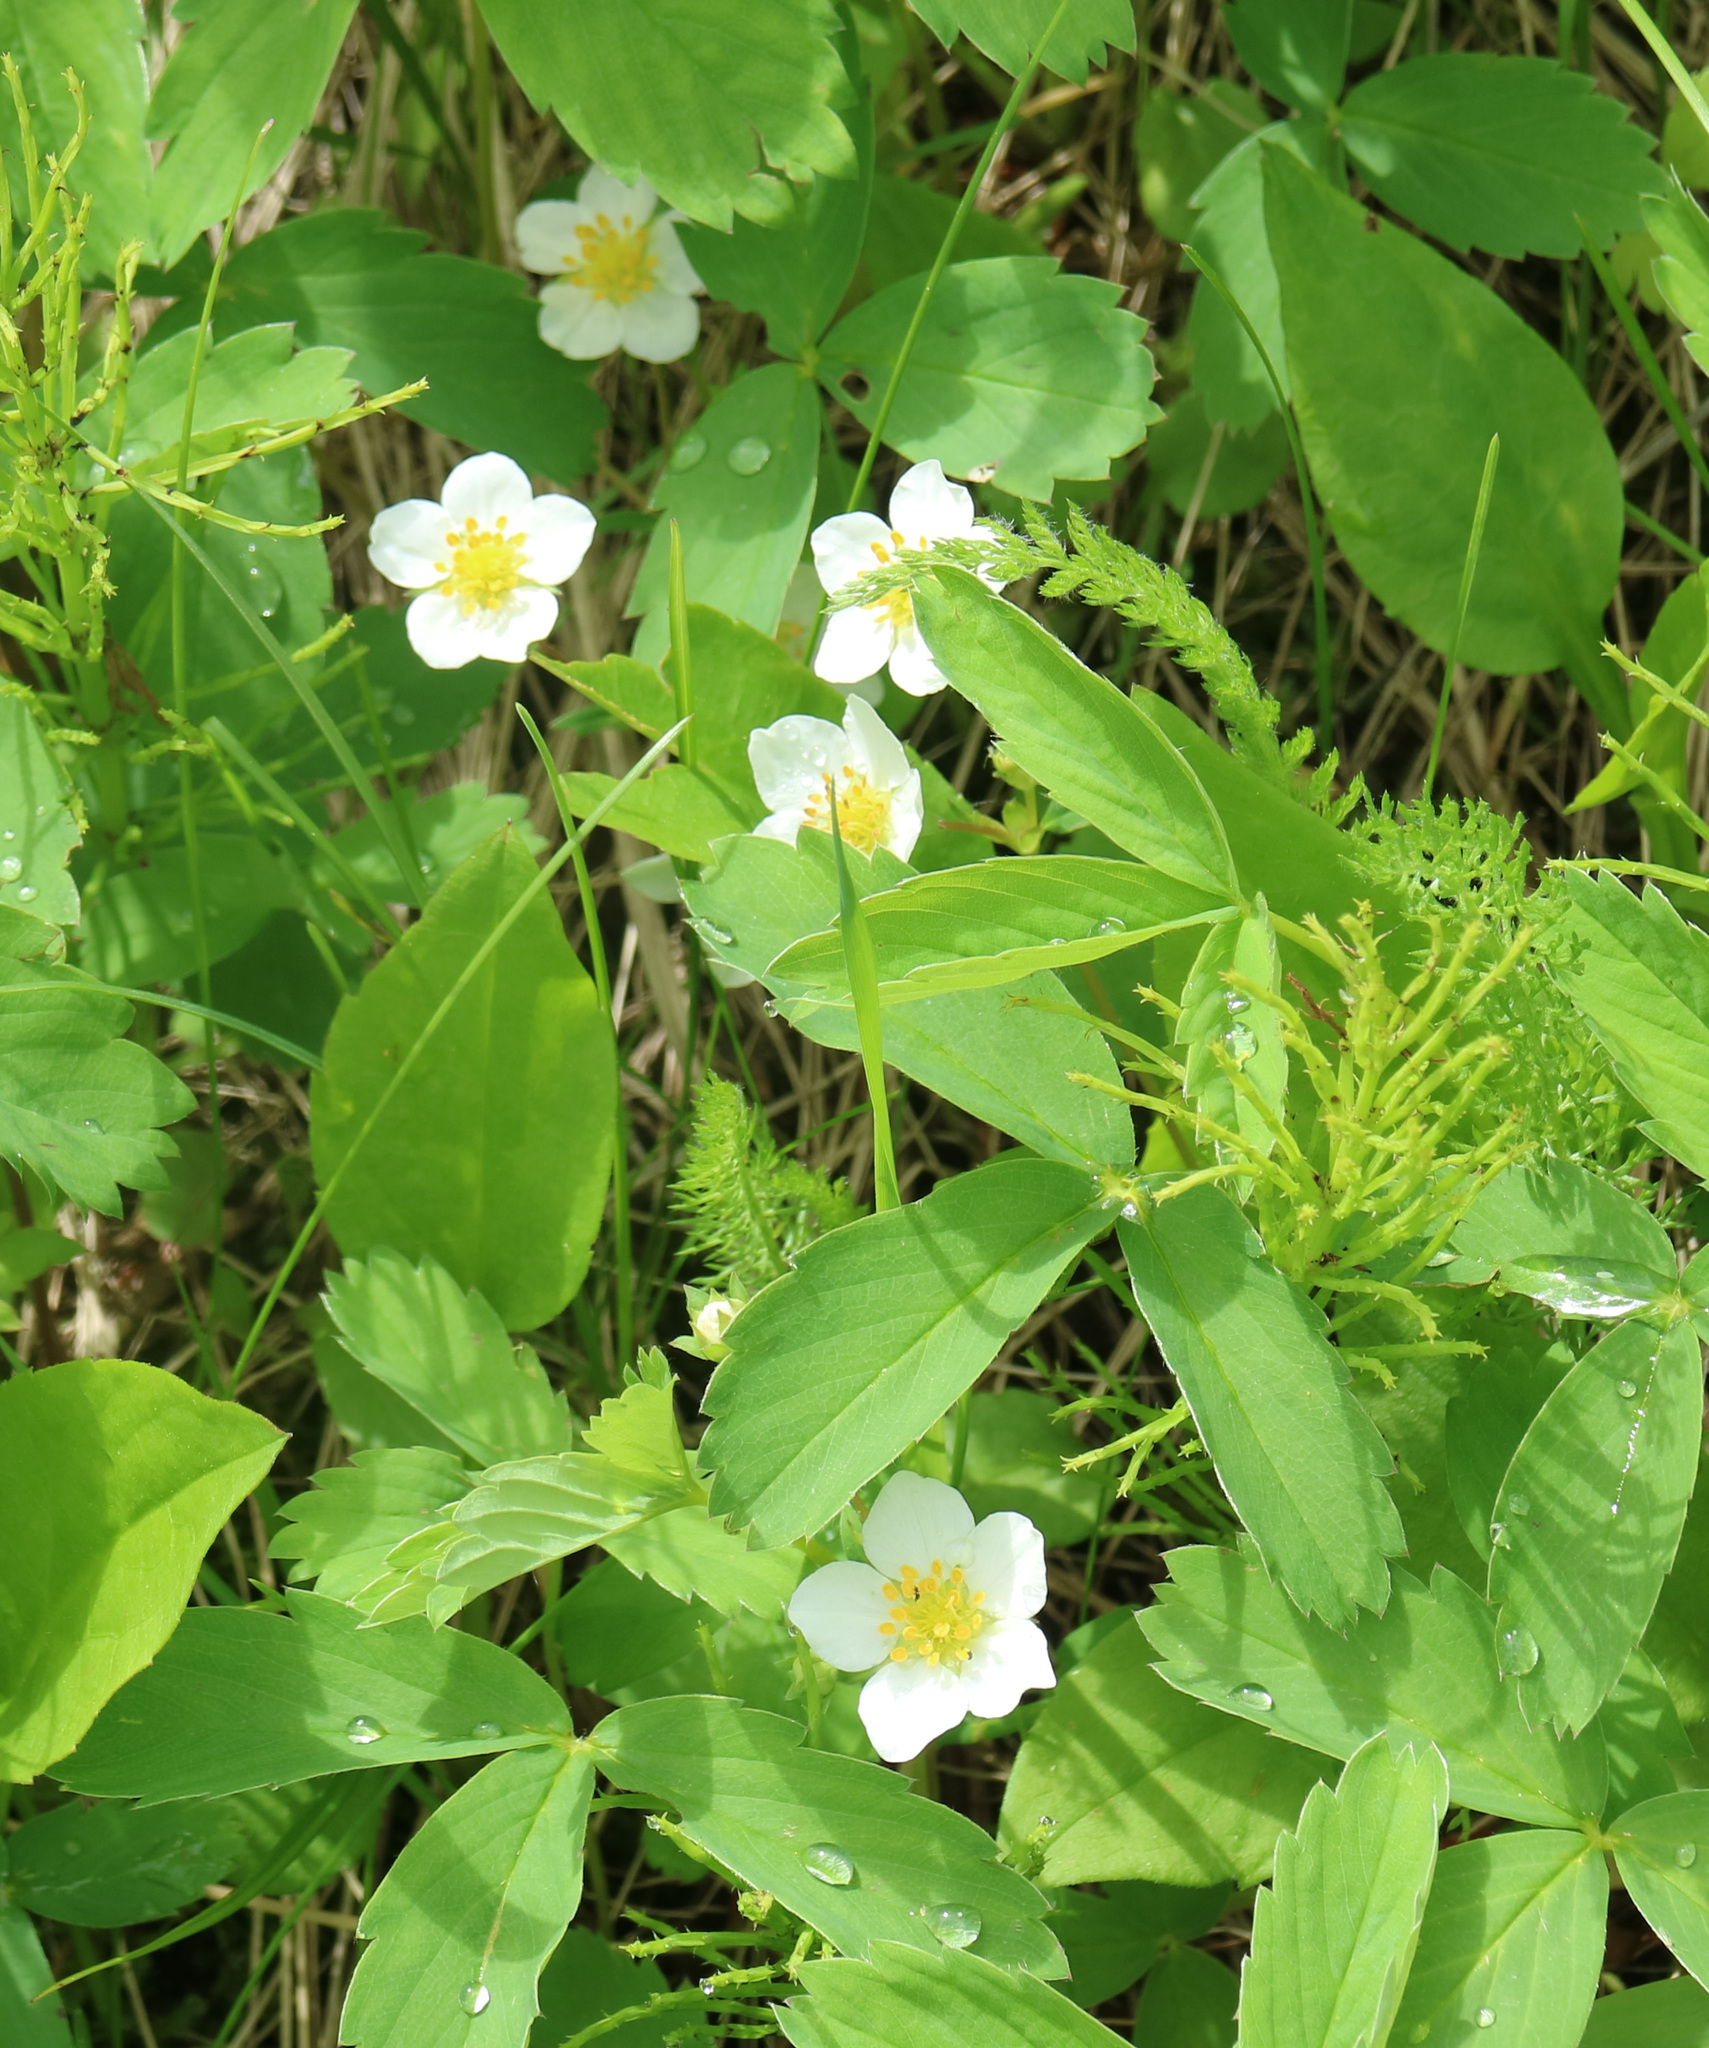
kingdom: Plantae
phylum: Tracheophyta
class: Magnoliopsida
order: Rosales
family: Rosaceae
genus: Fragaria
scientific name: Fragaria virginiana
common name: Thickleaved wild strawberry
